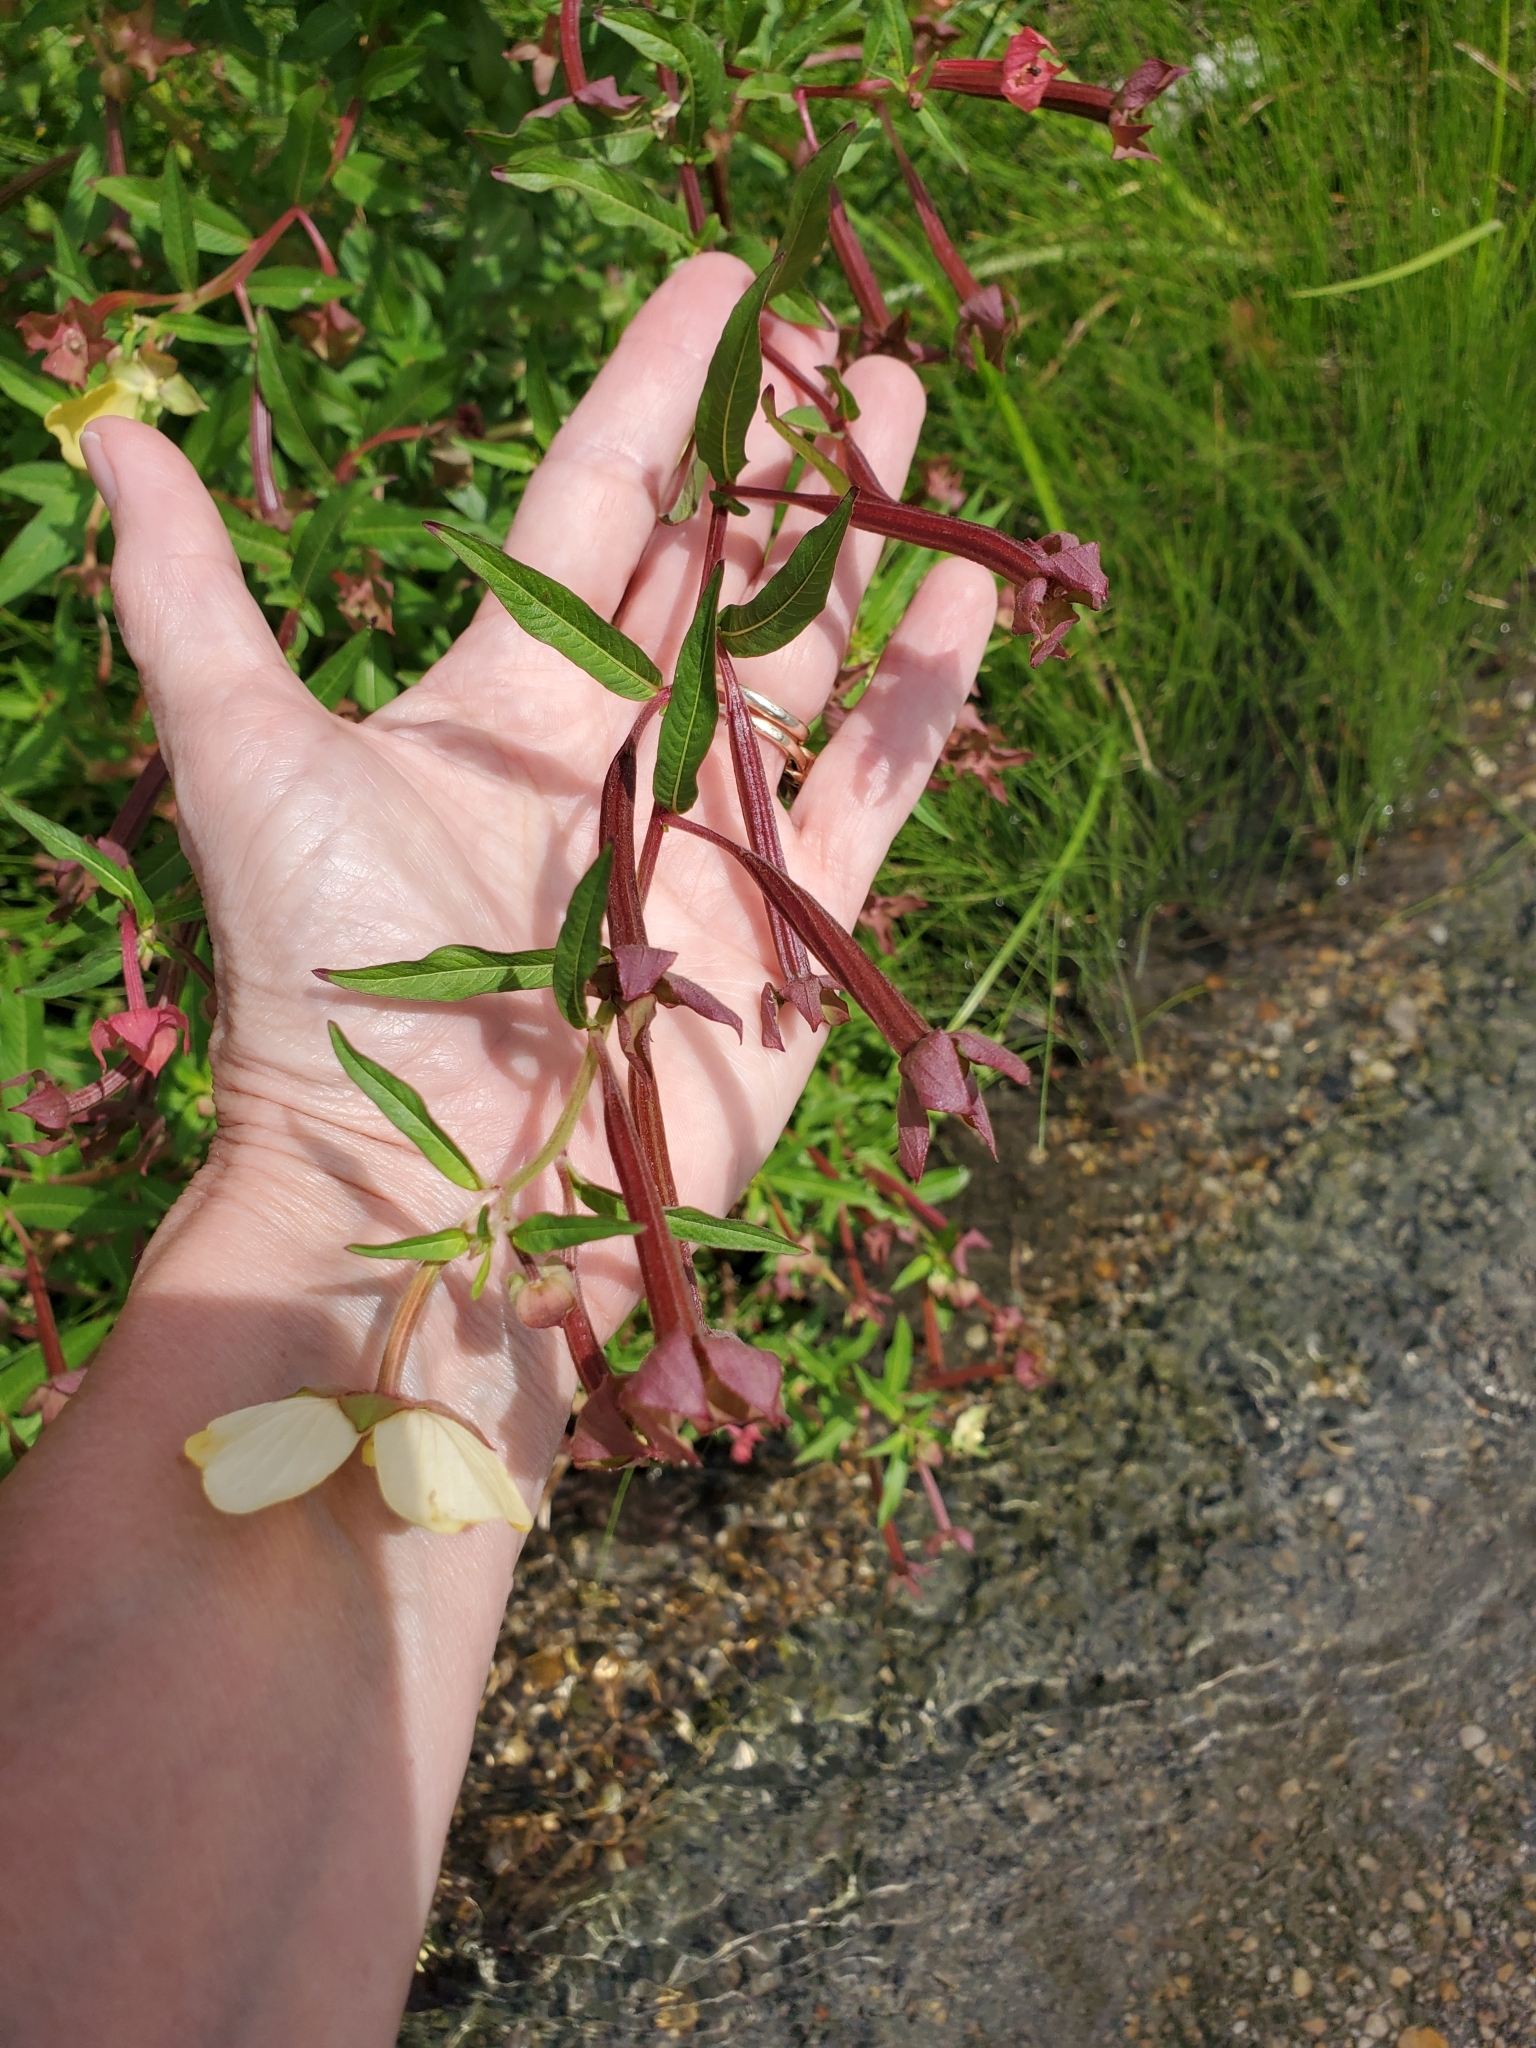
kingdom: Plantae
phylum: Tracheophyta
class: Magnoliopsida
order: Myrtales
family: Onagraceae
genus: Ludwigia
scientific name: Ludwigia octovalvis
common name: Water-primrose
